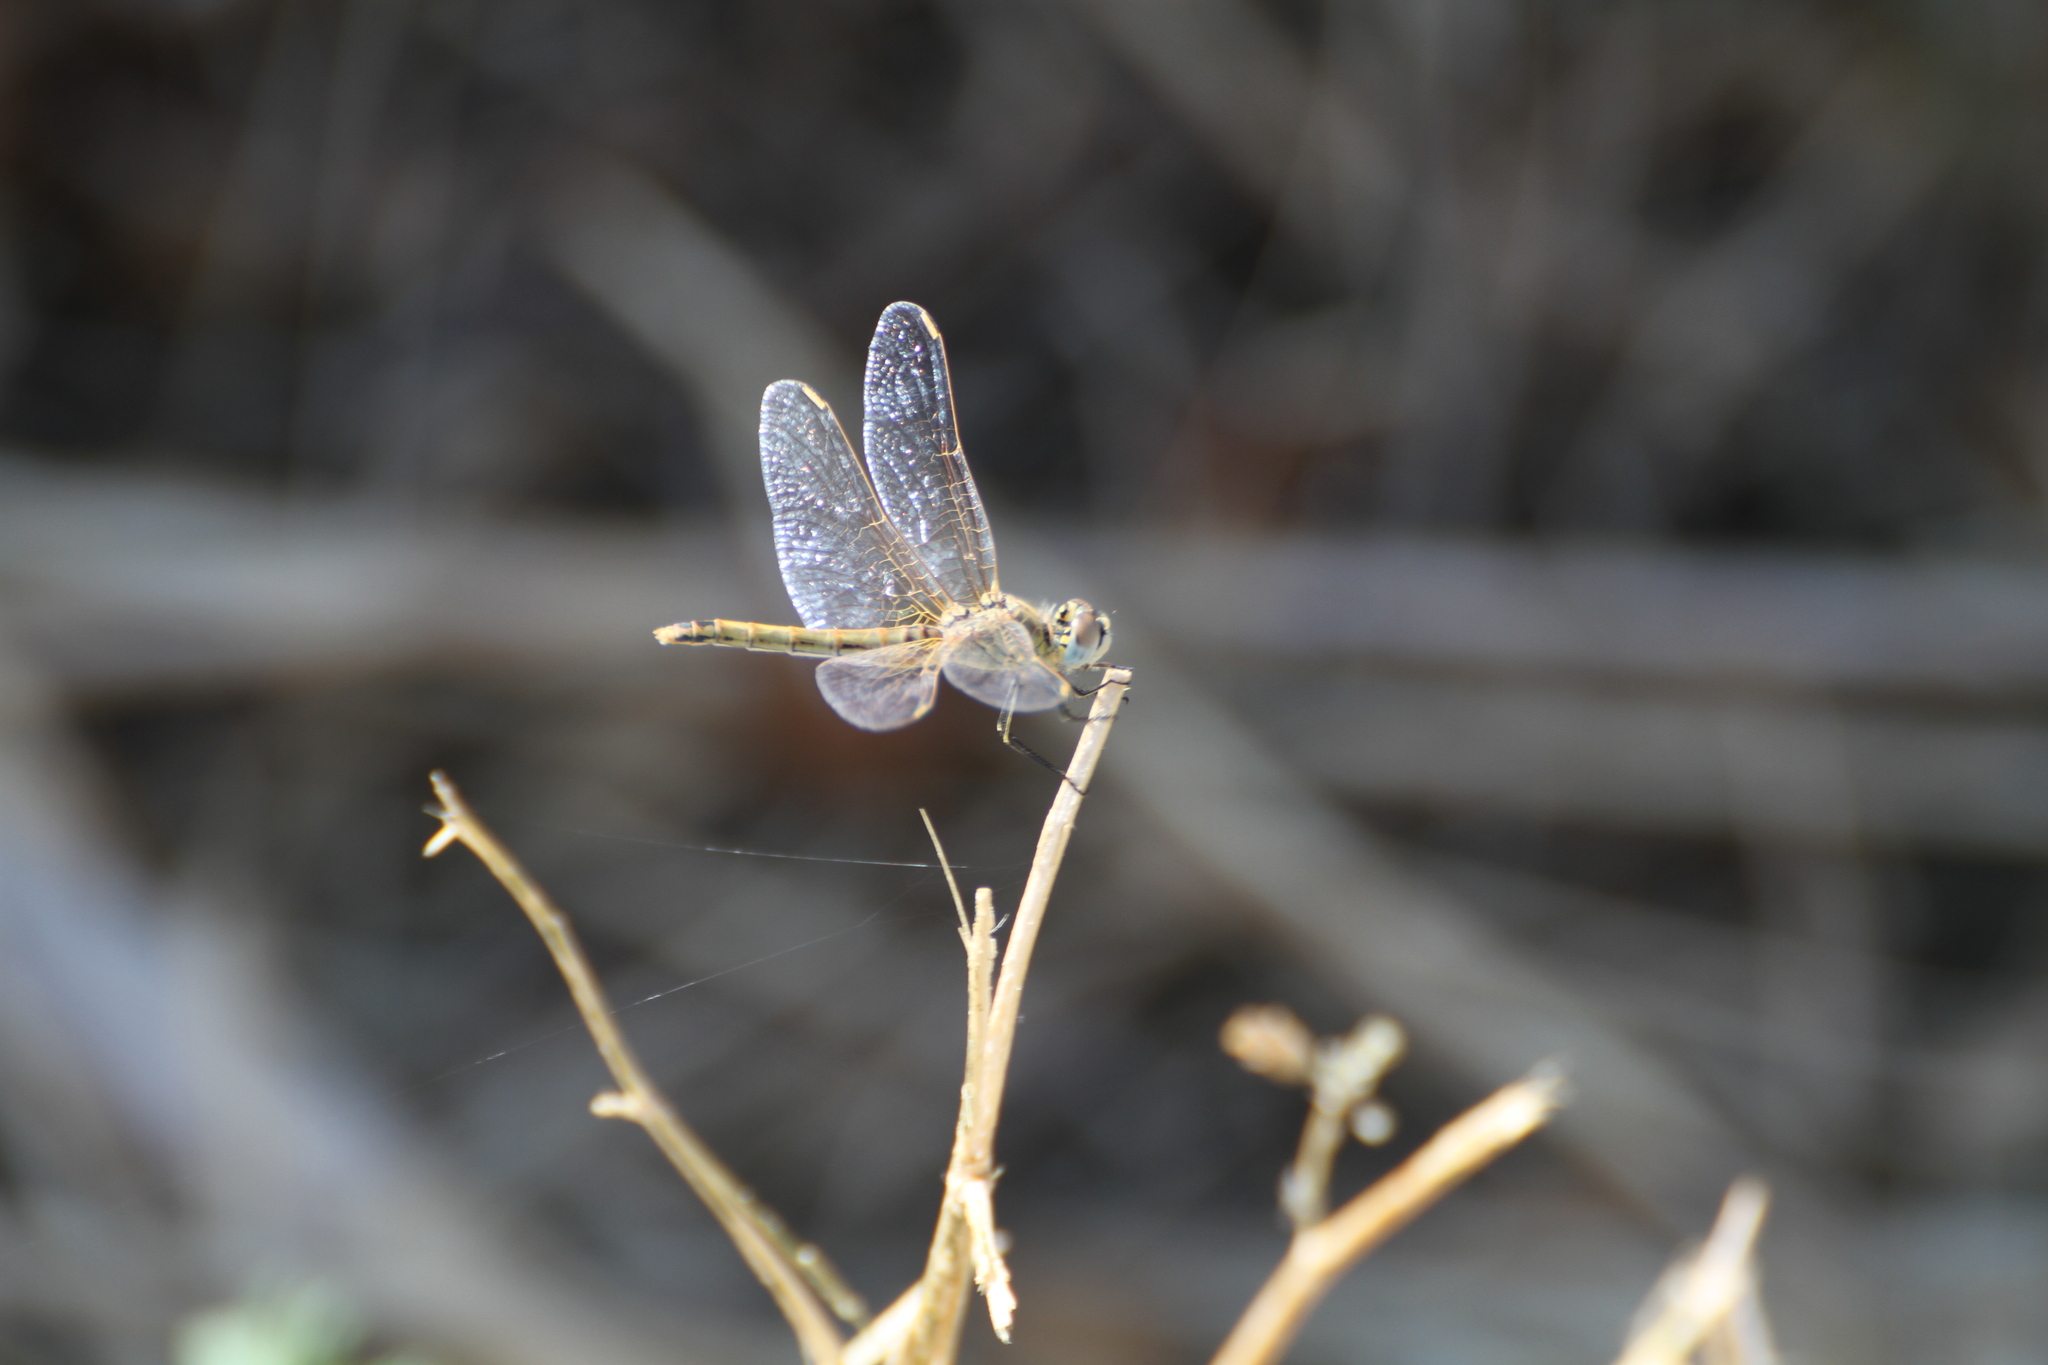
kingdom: Animalia
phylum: Arthropoda
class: Insecta
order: Odonata
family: Libellulidae
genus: Sympetrum
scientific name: Sympetrum fonscolombii
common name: Red-veined darter
